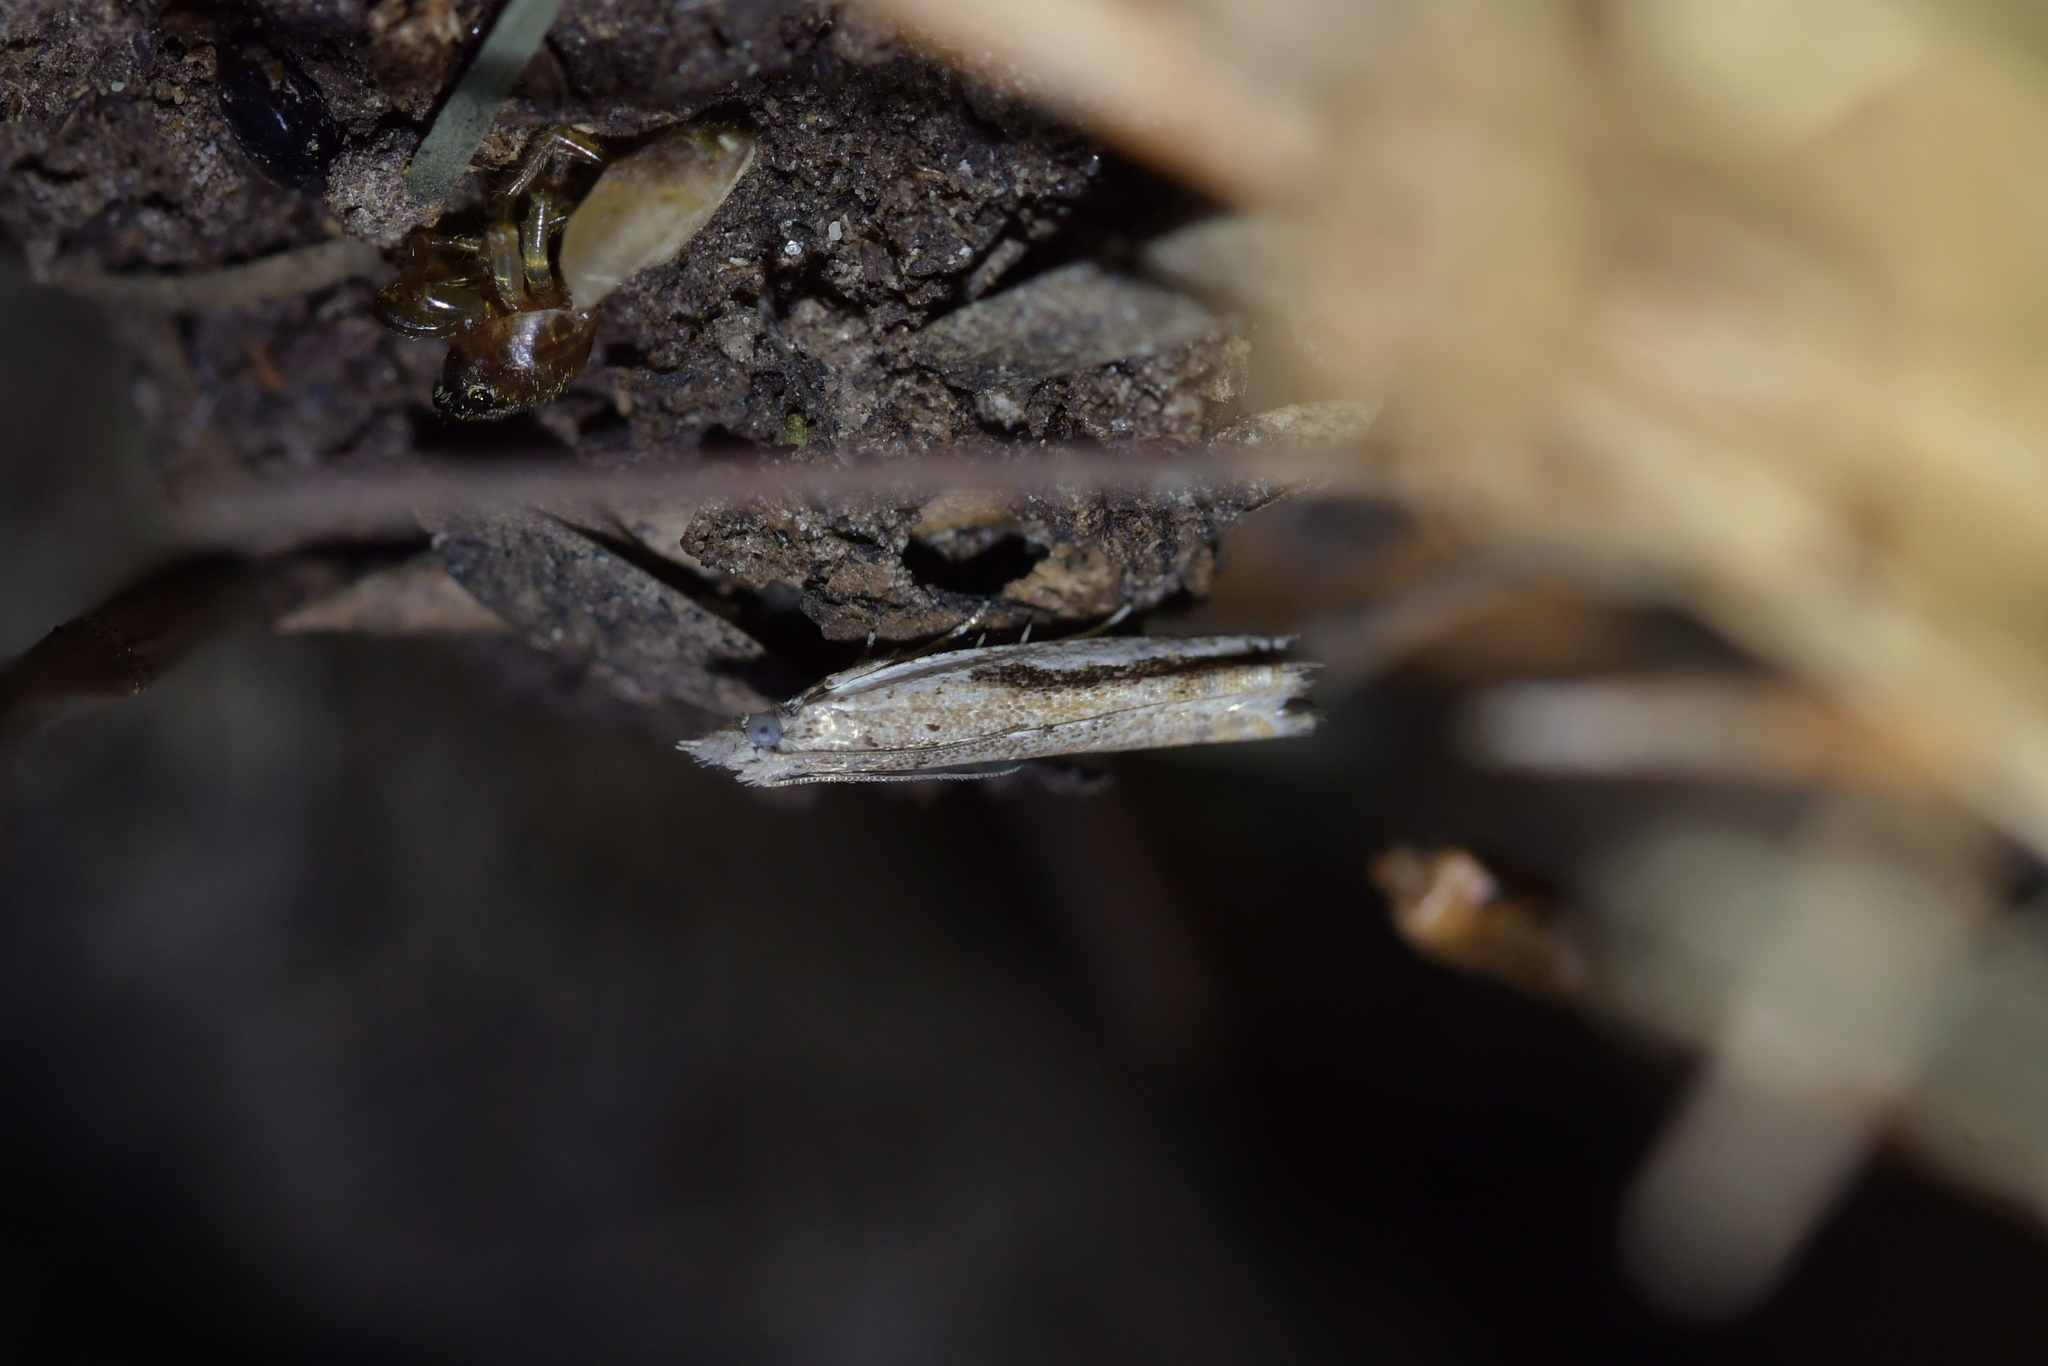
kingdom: Animalia
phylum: Arthropoda
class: Insecta
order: Lepidoptera
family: Tortricidae
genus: Holocola
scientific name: Holocola
